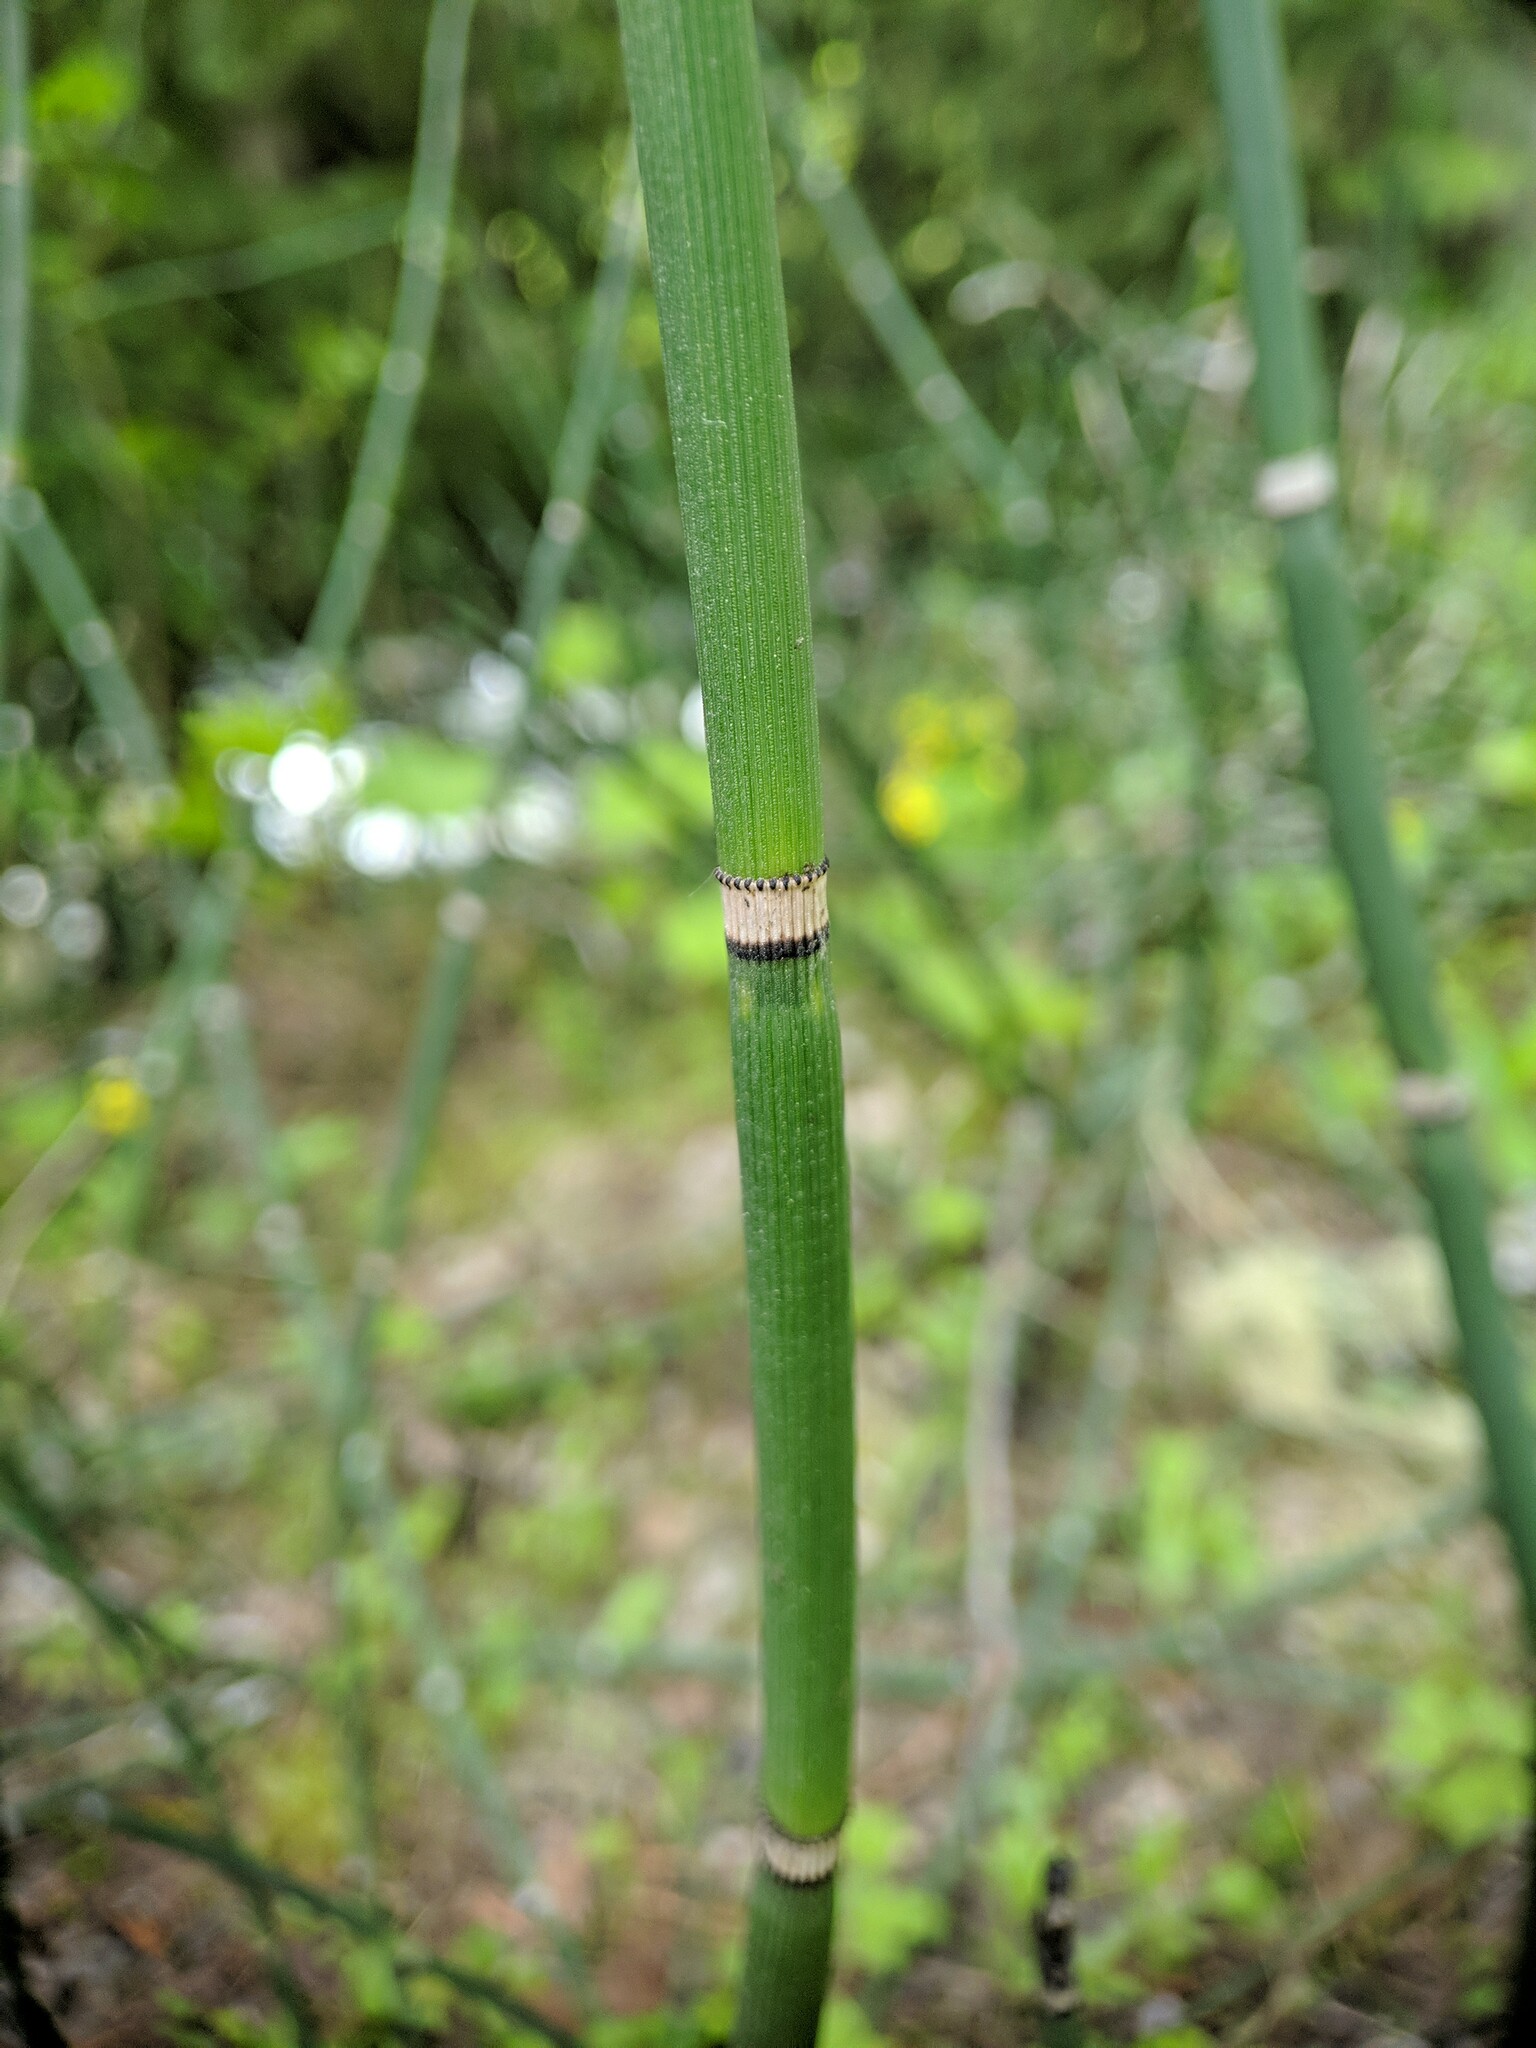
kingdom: Plantae
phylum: Tracheophyta
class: Polypodiopsida
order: Equisetales
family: Equisetaceae
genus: Equisetum
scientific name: Equisetum praealtum
